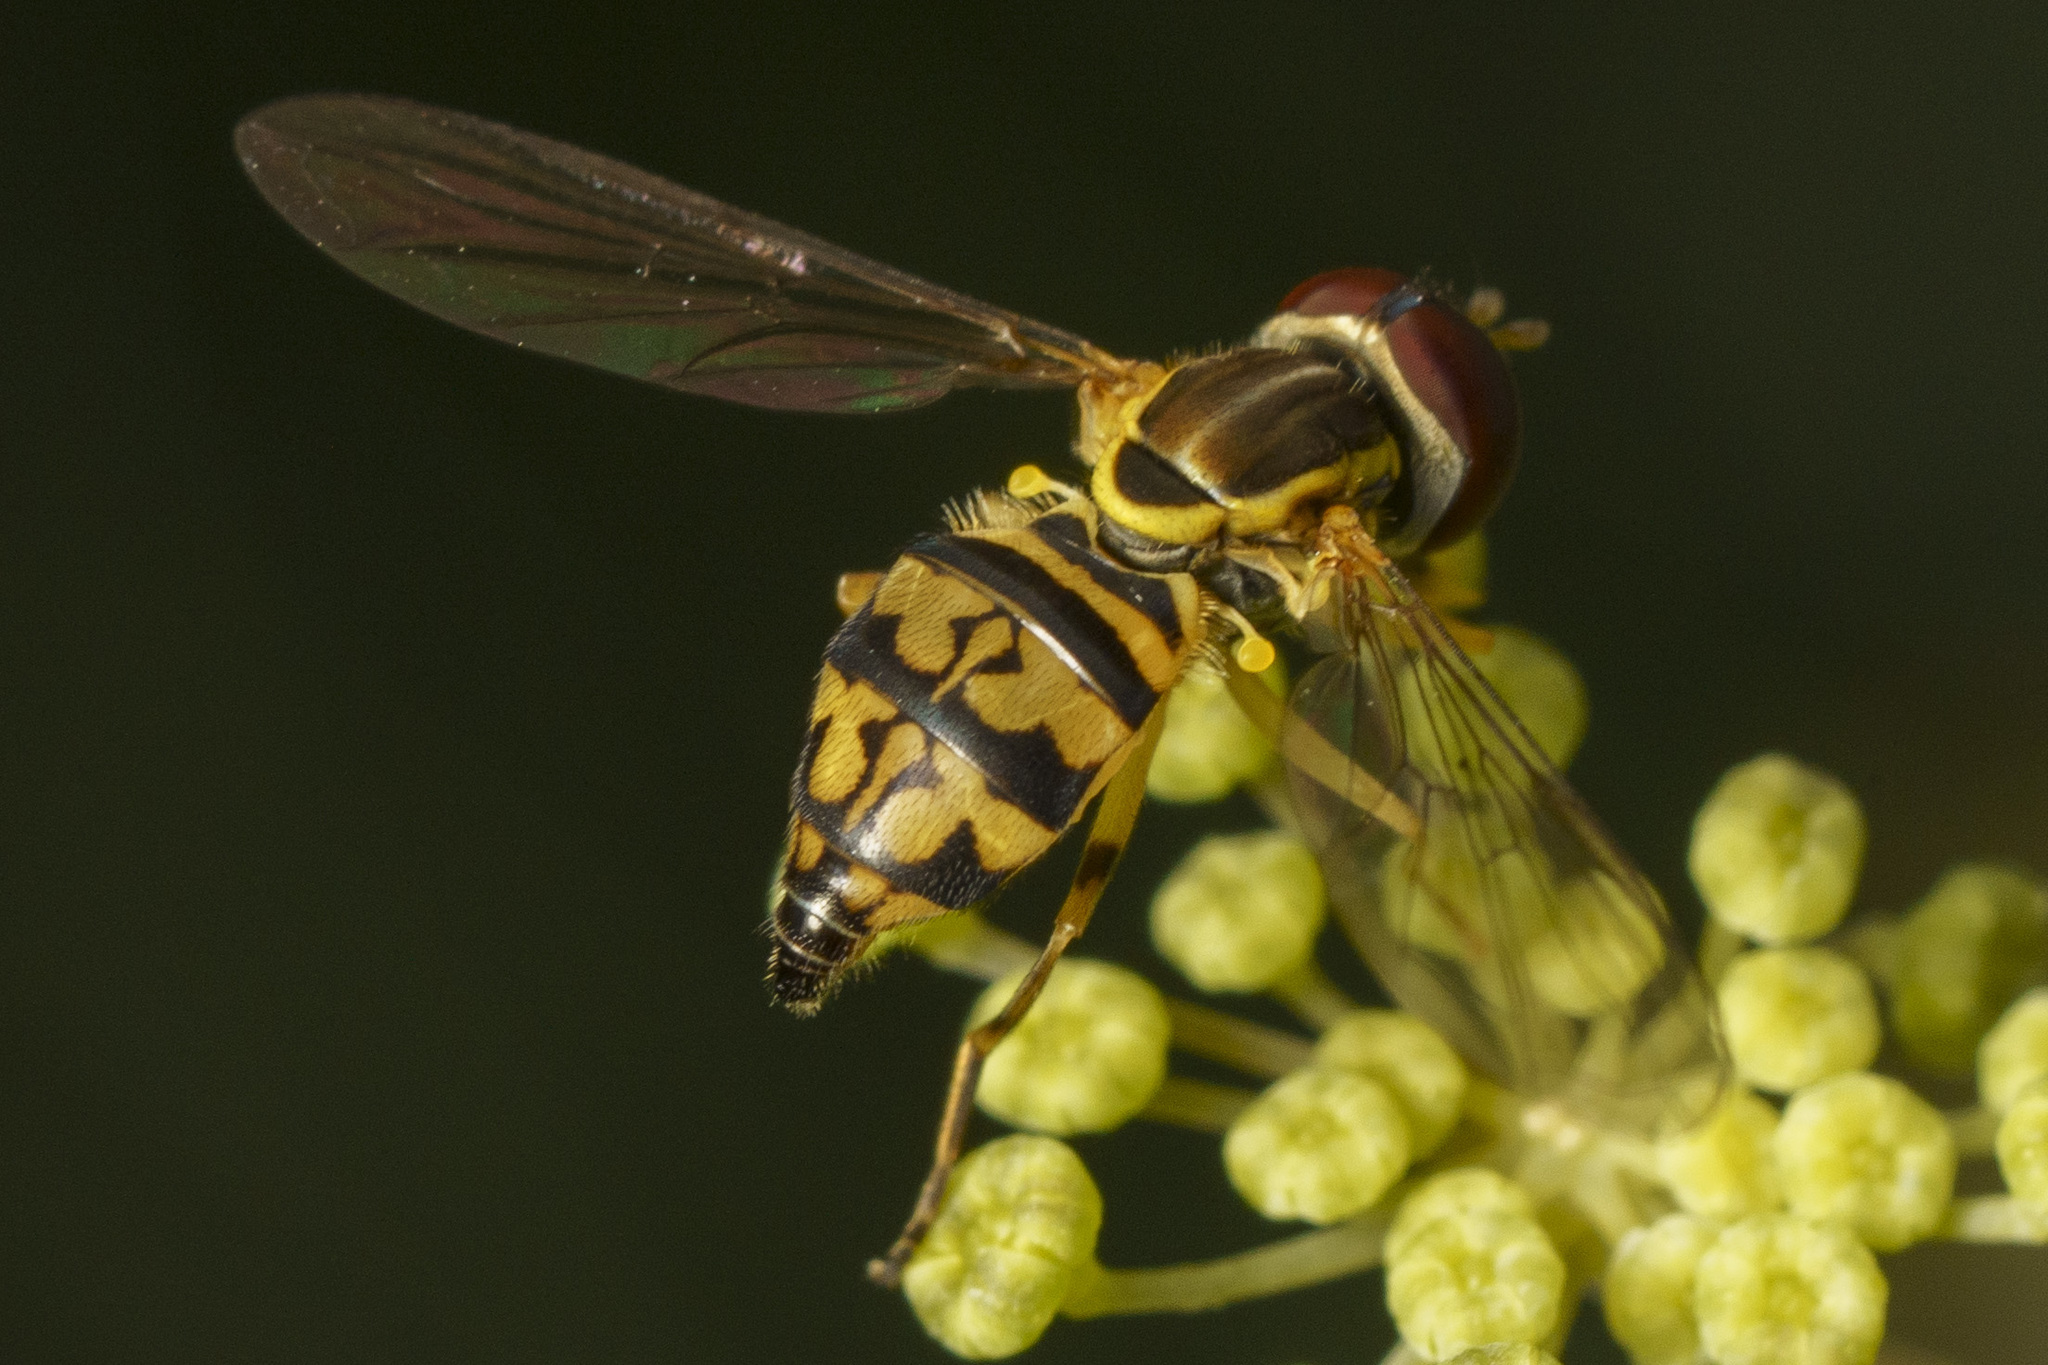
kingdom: Animalia
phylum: Arthropoda
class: Insecta
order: Diptera
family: Syrphidae
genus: Toxomerus
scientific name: Toxomerus geminatus
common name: Eastern calligrapher
